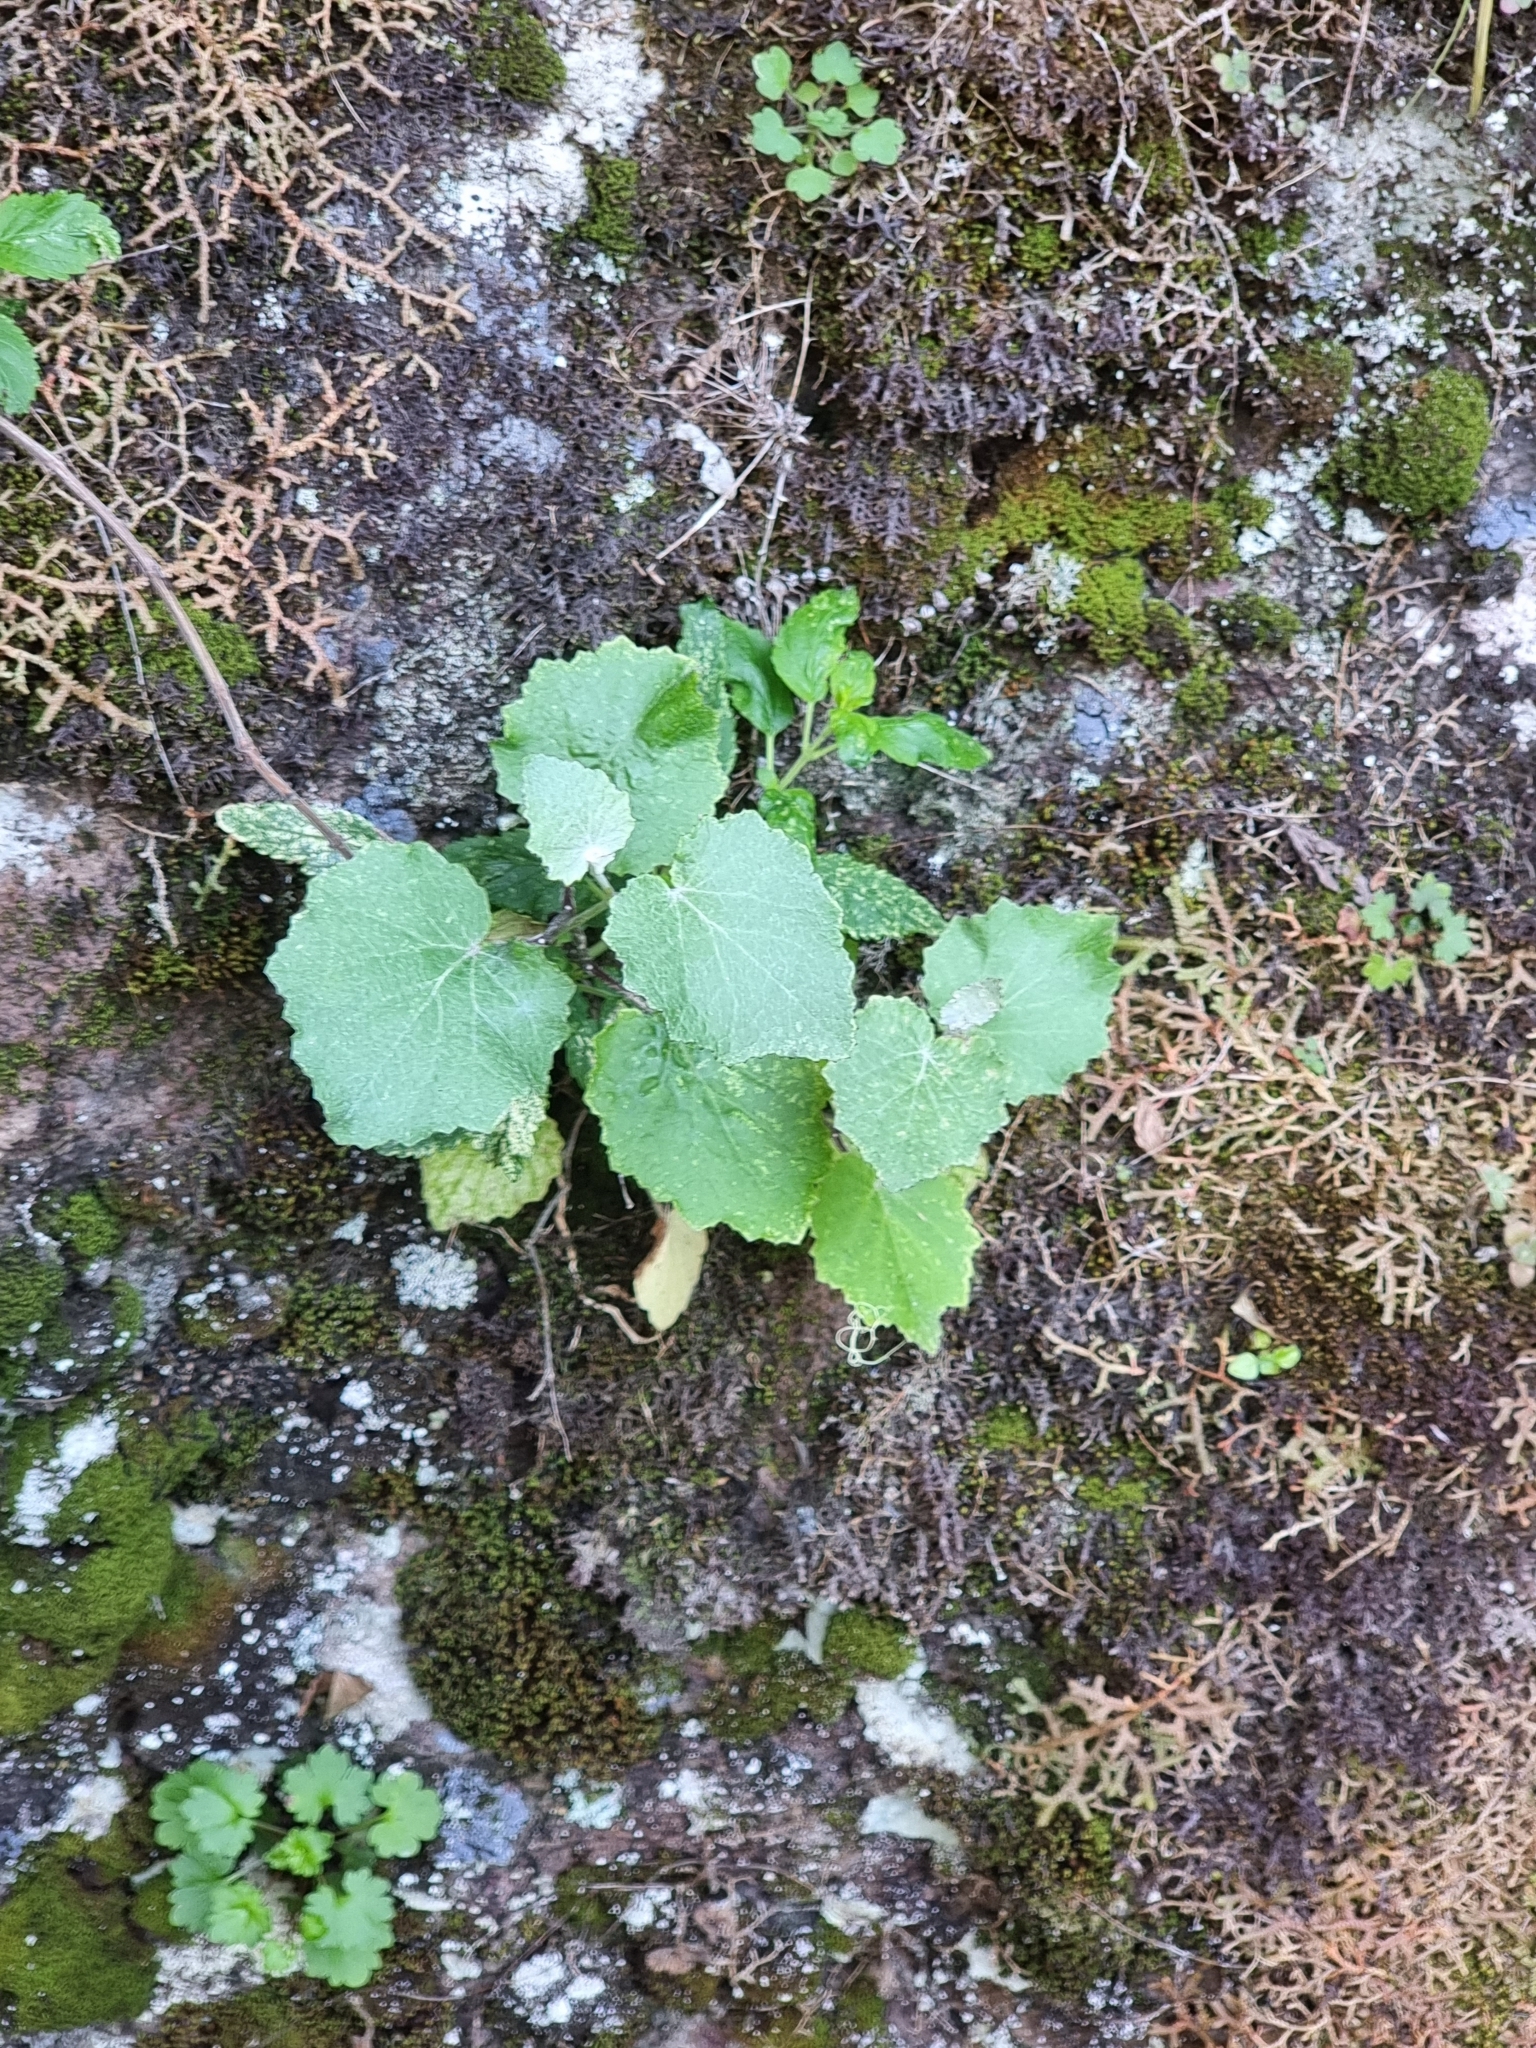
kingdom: Plantae
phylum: Tracheophyta
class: Magnoliopsida
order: Asterales
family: Asteraceae
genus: Pericallis
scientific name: Pericallis aurita
